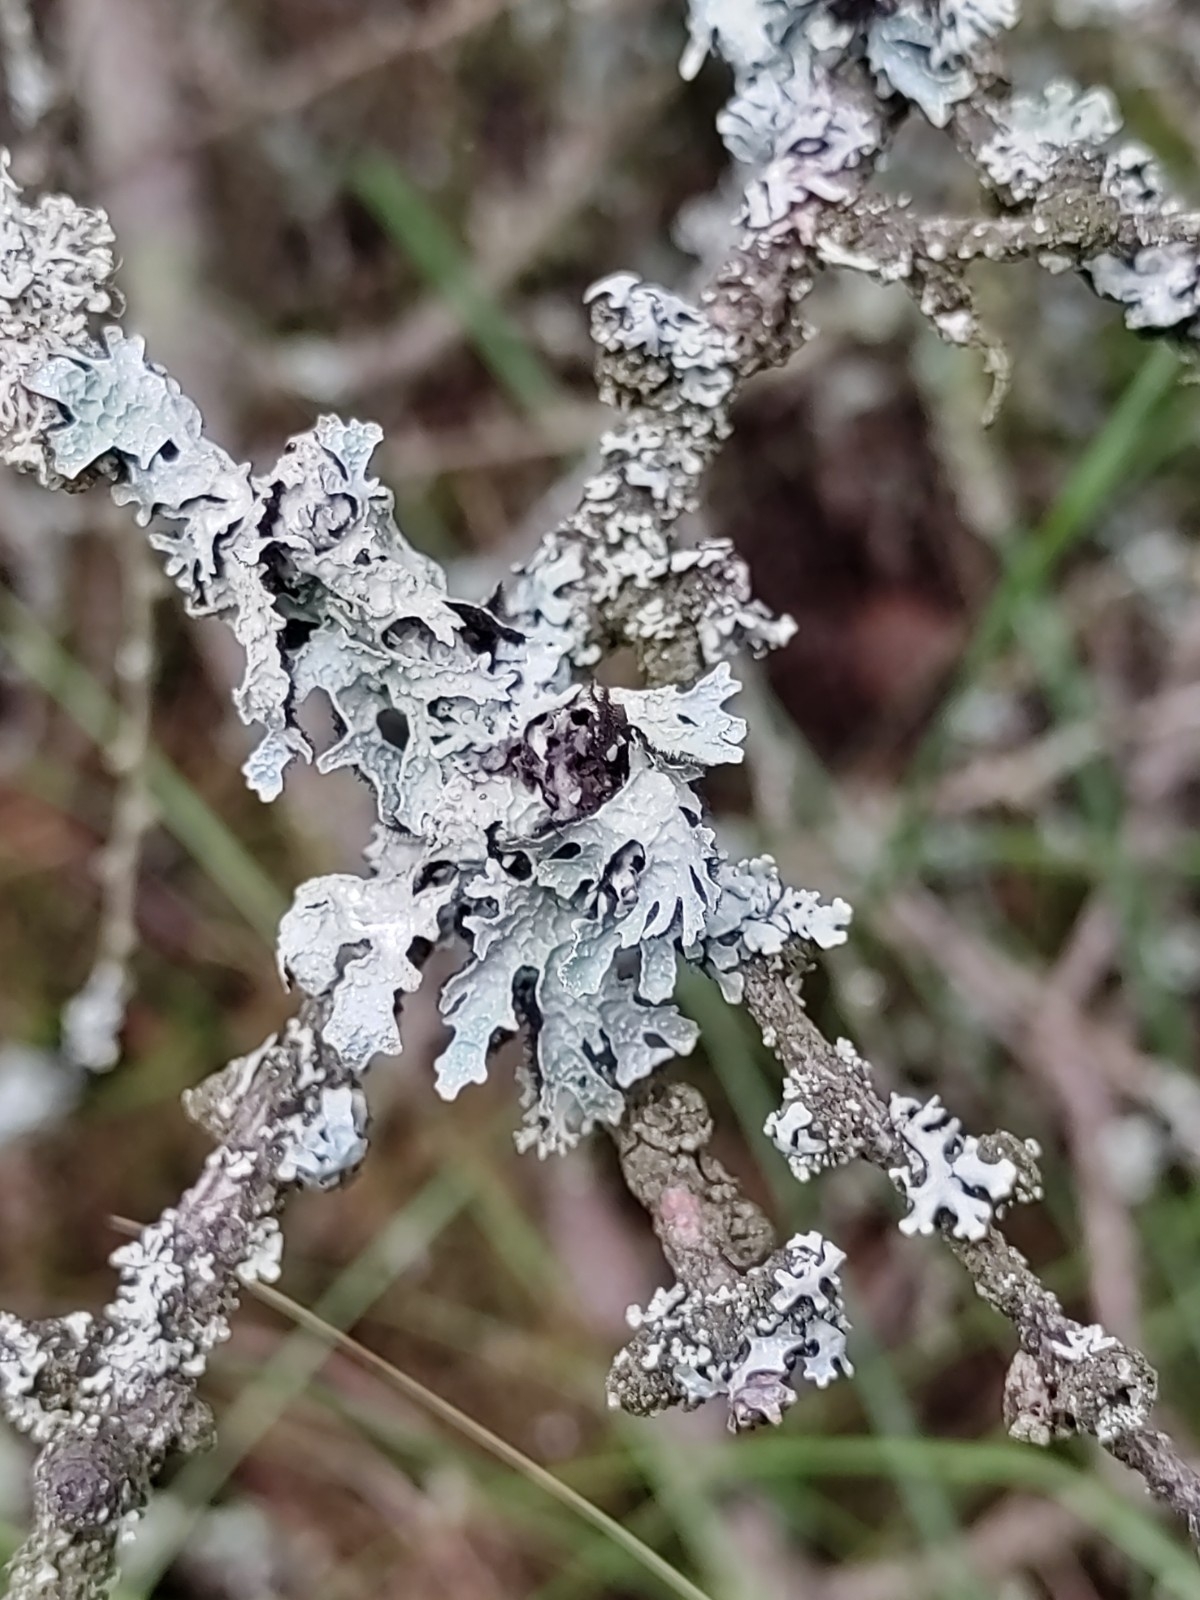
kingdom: Fungi
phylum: Ascomycota
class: Lecanoromycetes
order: Lecanorales
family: Parmeliaceae
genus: Parmelia
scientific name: Parmelia sulcata
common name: Netted shield lichen
